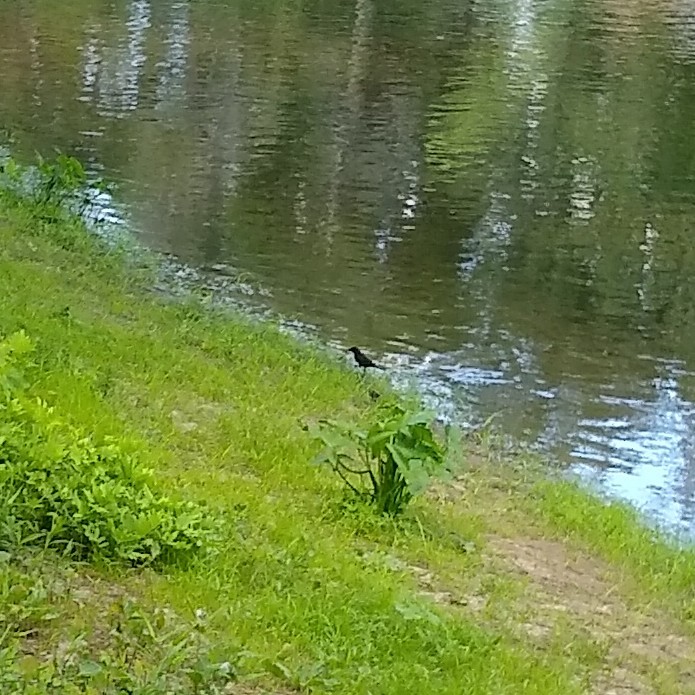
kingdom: Animalia
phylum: Chordata
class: Aves
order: Passeriformes
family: Icteridae
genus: Quiscalus
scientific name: Quiscalus quiscula
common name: Common grackle
